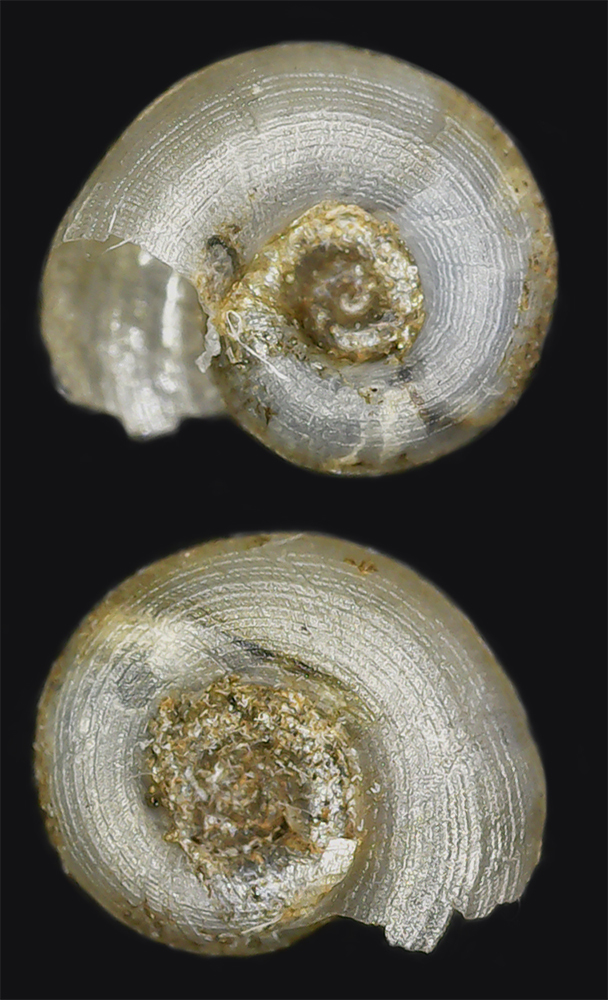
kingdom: Animalia
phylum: Mollusca
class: Gastropoda
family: Planorbidae
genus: Gyraulus
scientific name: Gyraulus albus
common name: White ramshorn
